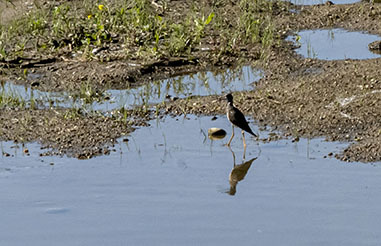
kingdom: Animalia
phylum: Chordata
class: Aves
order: Charadriiformes
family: Scolopacidae
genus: Tringa
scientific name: Tringa melanoleuca
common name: Greater yellowlegs
